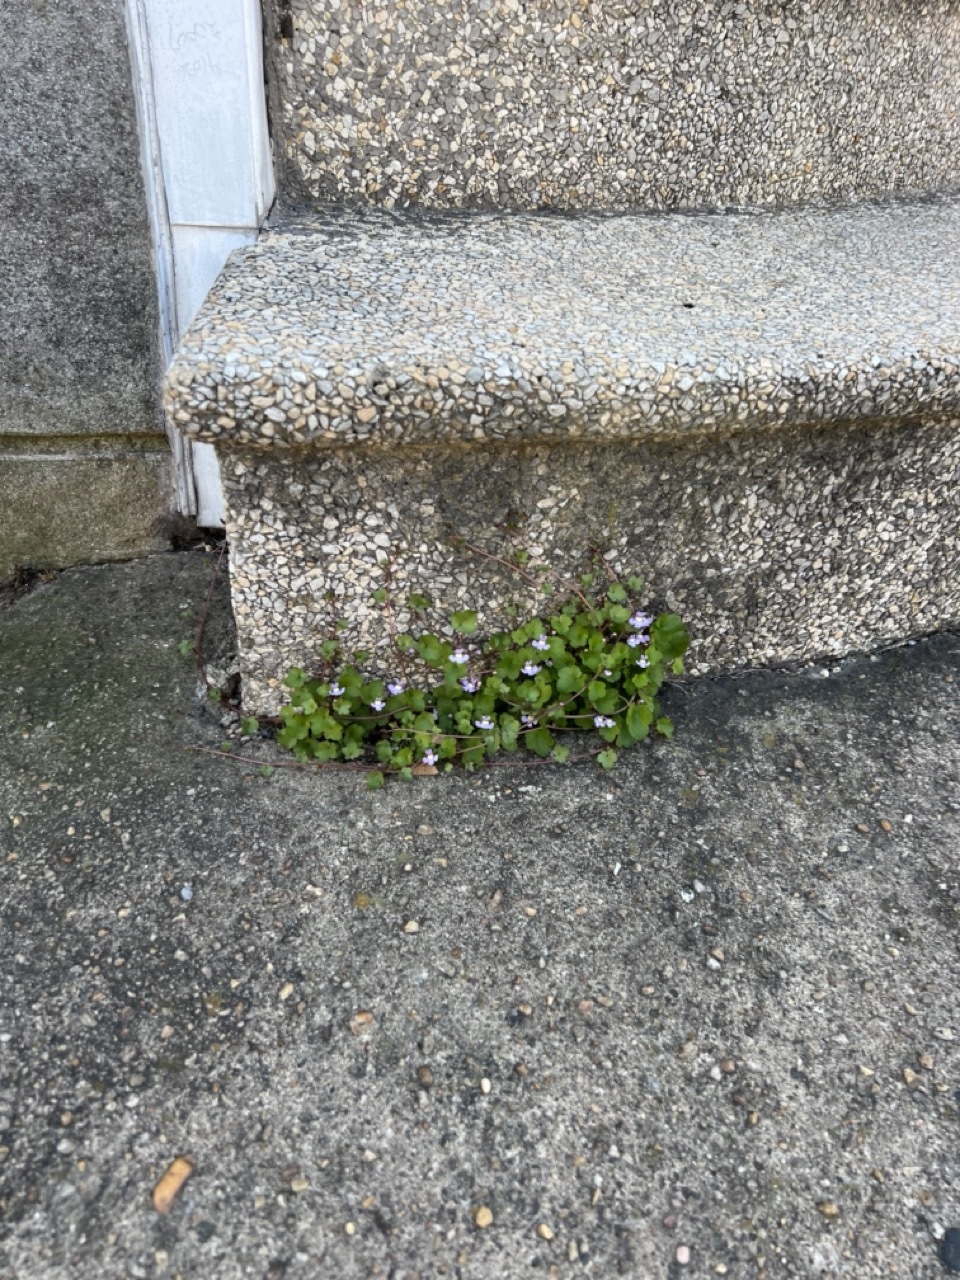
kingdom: Plantae
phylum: Tracheophyta
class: Magnoliopsida
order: Lamiales
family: Plantaginaceae
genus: Cymbalaria
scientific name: Cymbalaria muralis
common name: Ivy-leaved toadflax
